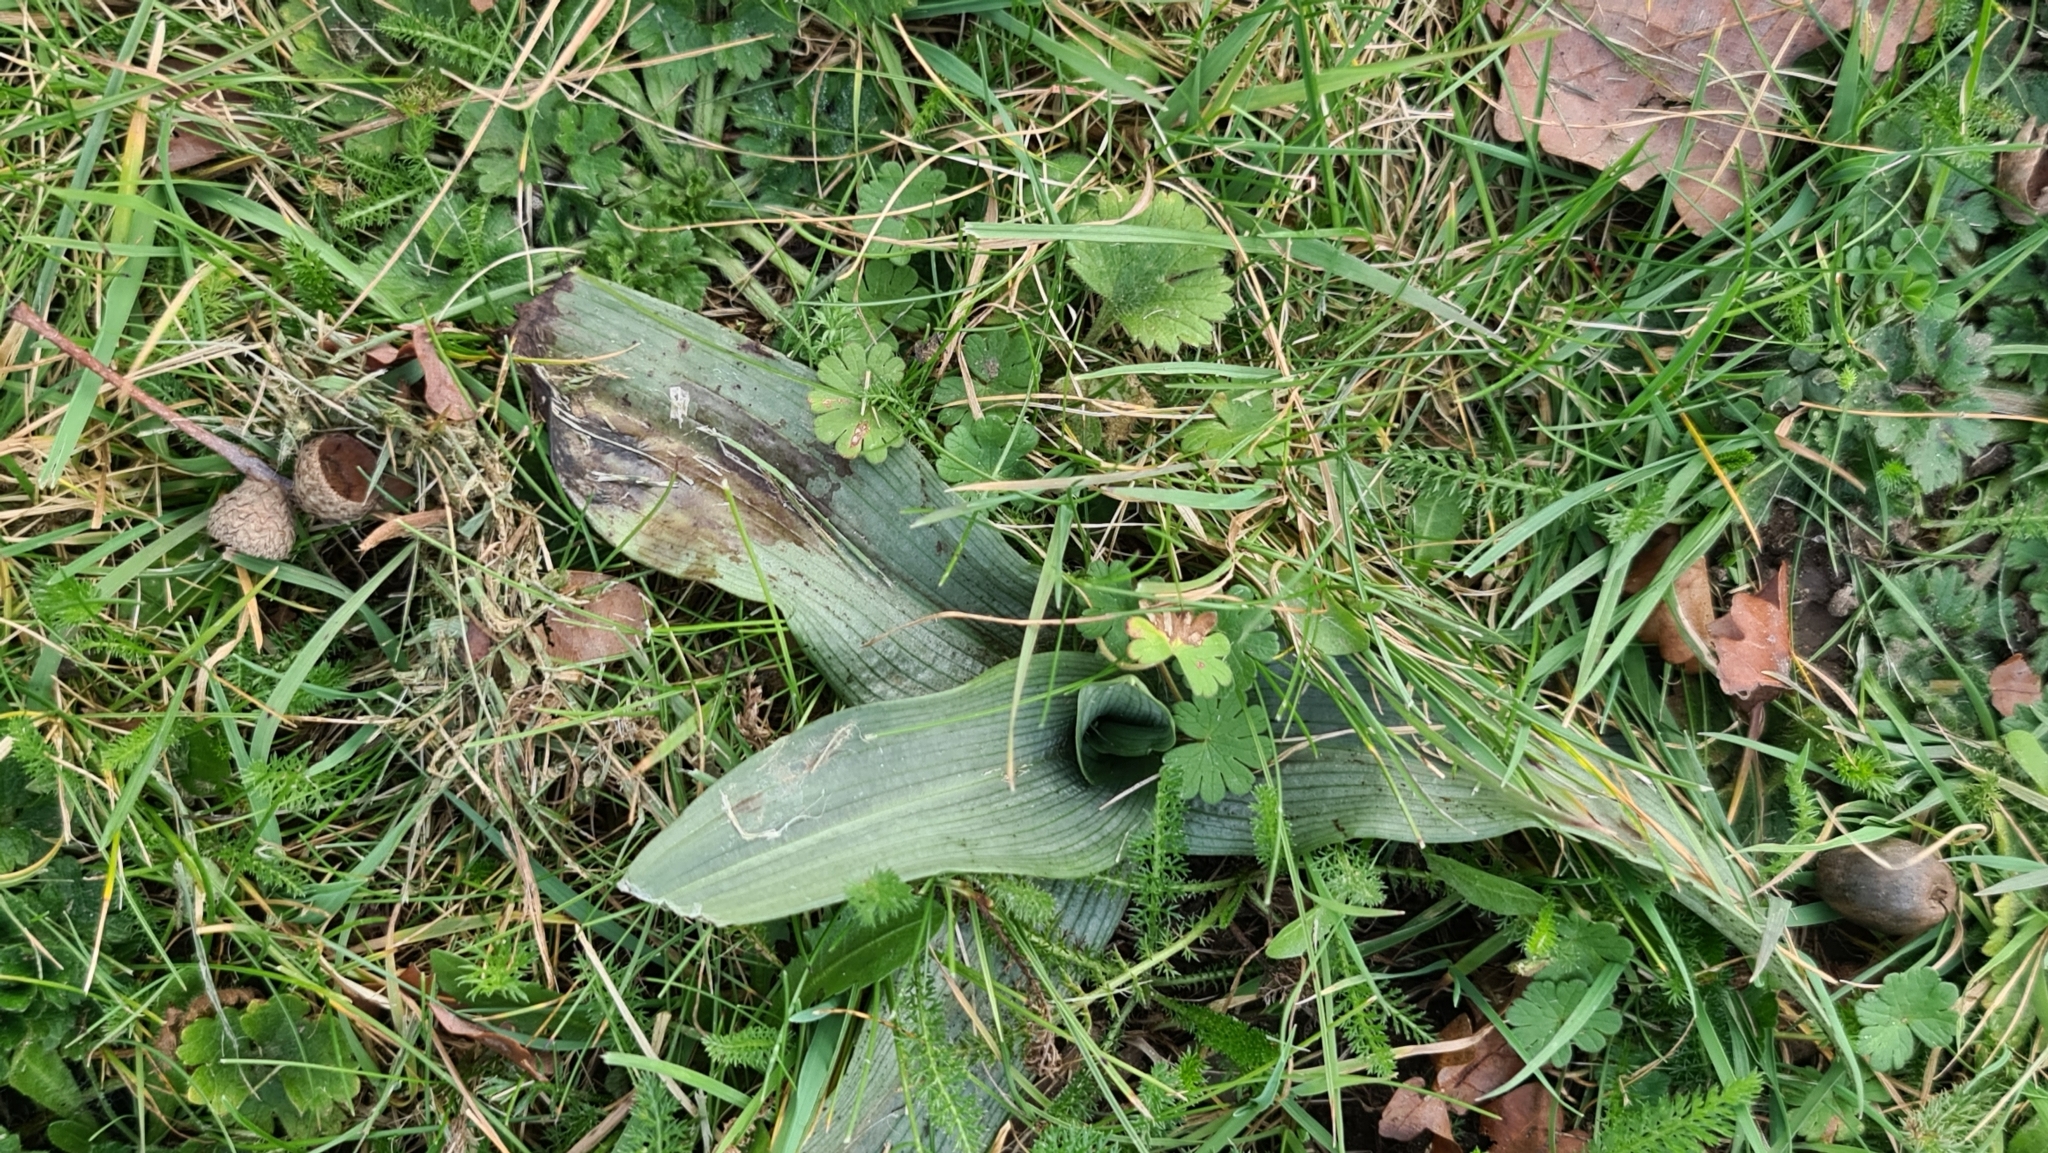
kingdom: Plantae
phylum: Tracheophyta
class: Liliopsida
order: Asparagales
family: Orchidaceae
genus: Ophrys
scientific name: Ophrys apifera
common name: Bee orchid
